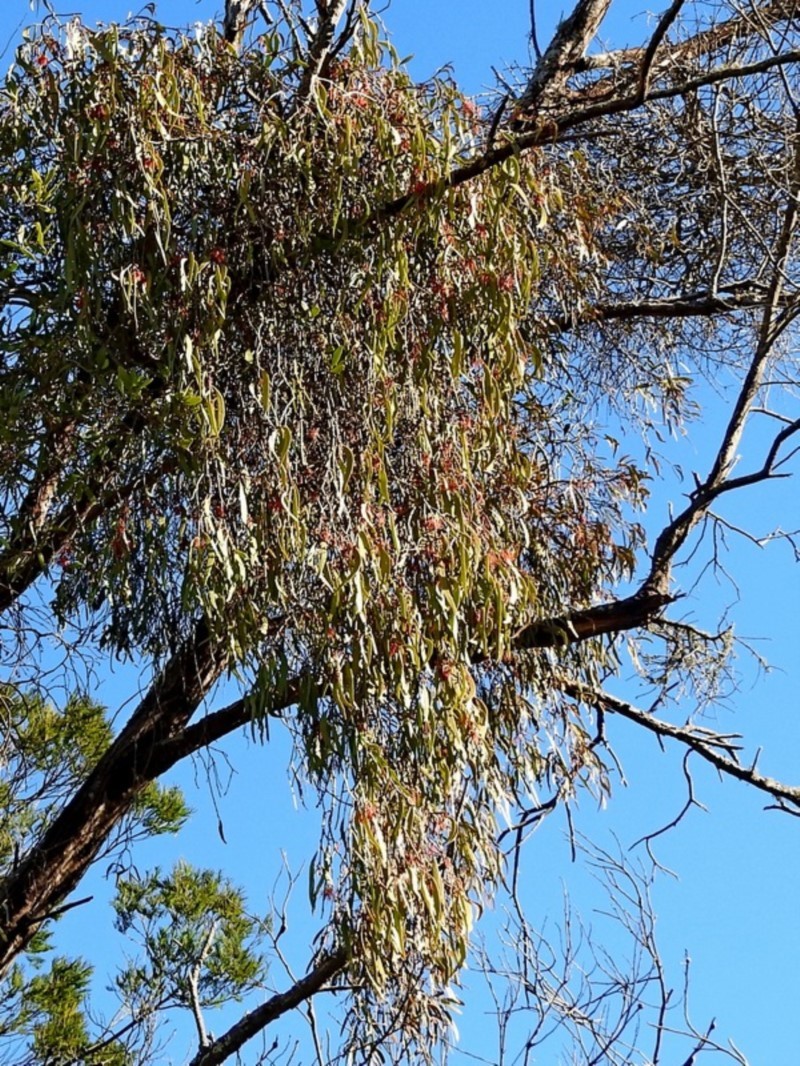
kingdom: Plantae
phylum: Tracheophyta
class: Magnoliopsida
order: Santalales
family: Loranthaceae
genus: Amyema
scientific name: Amyema pendula
